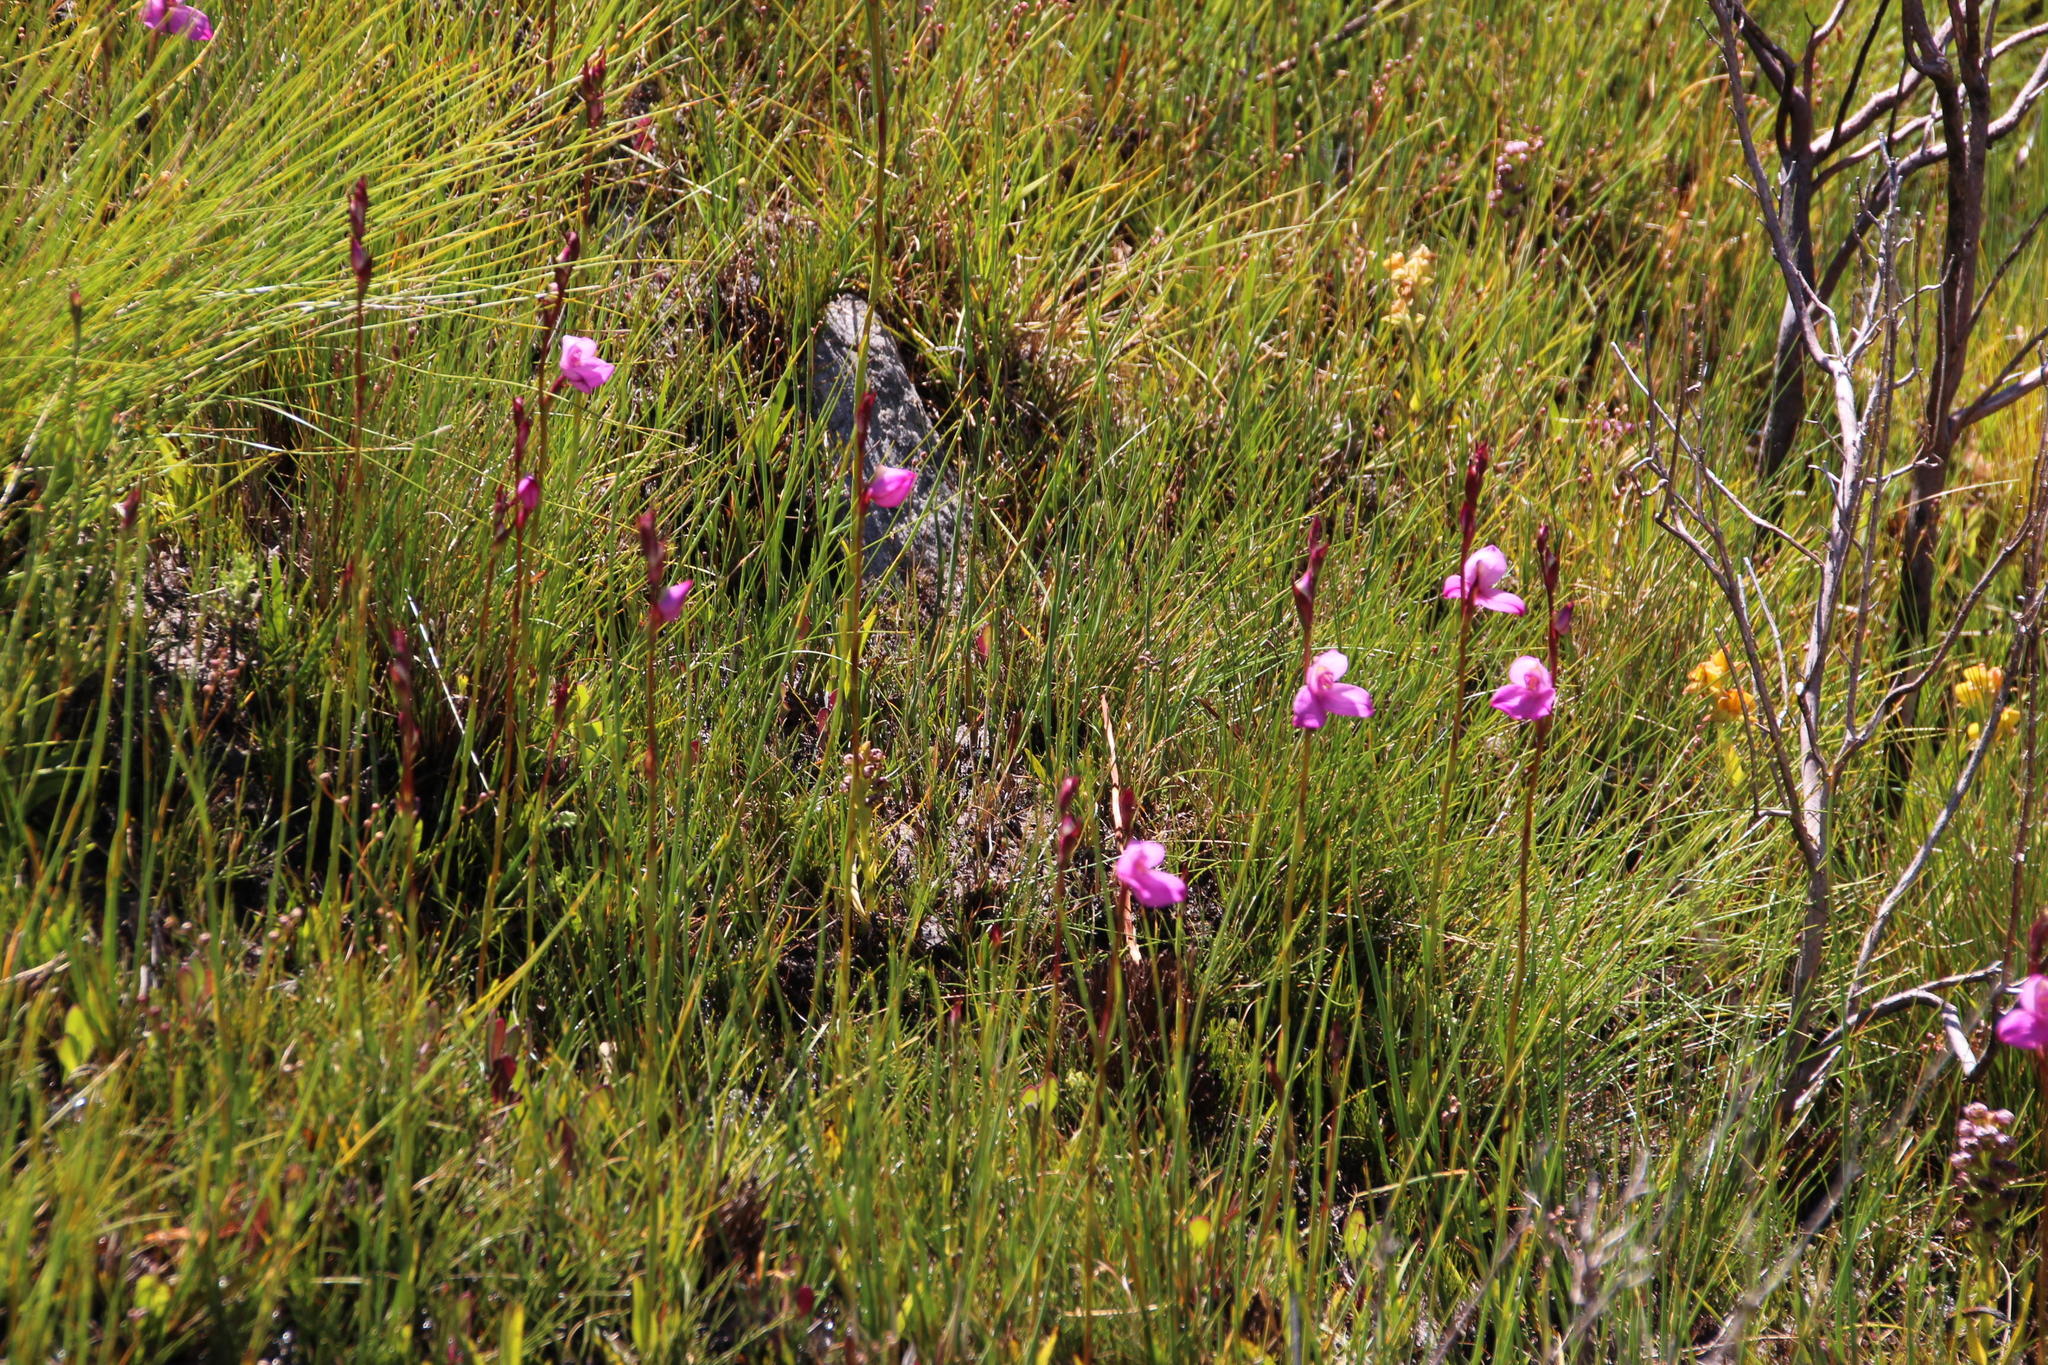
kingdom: Plantae
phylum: Tracheophyta
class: Liliopsida
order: Asparagales
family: Orchidaceae
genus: Disa
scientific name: Disa racemosa
